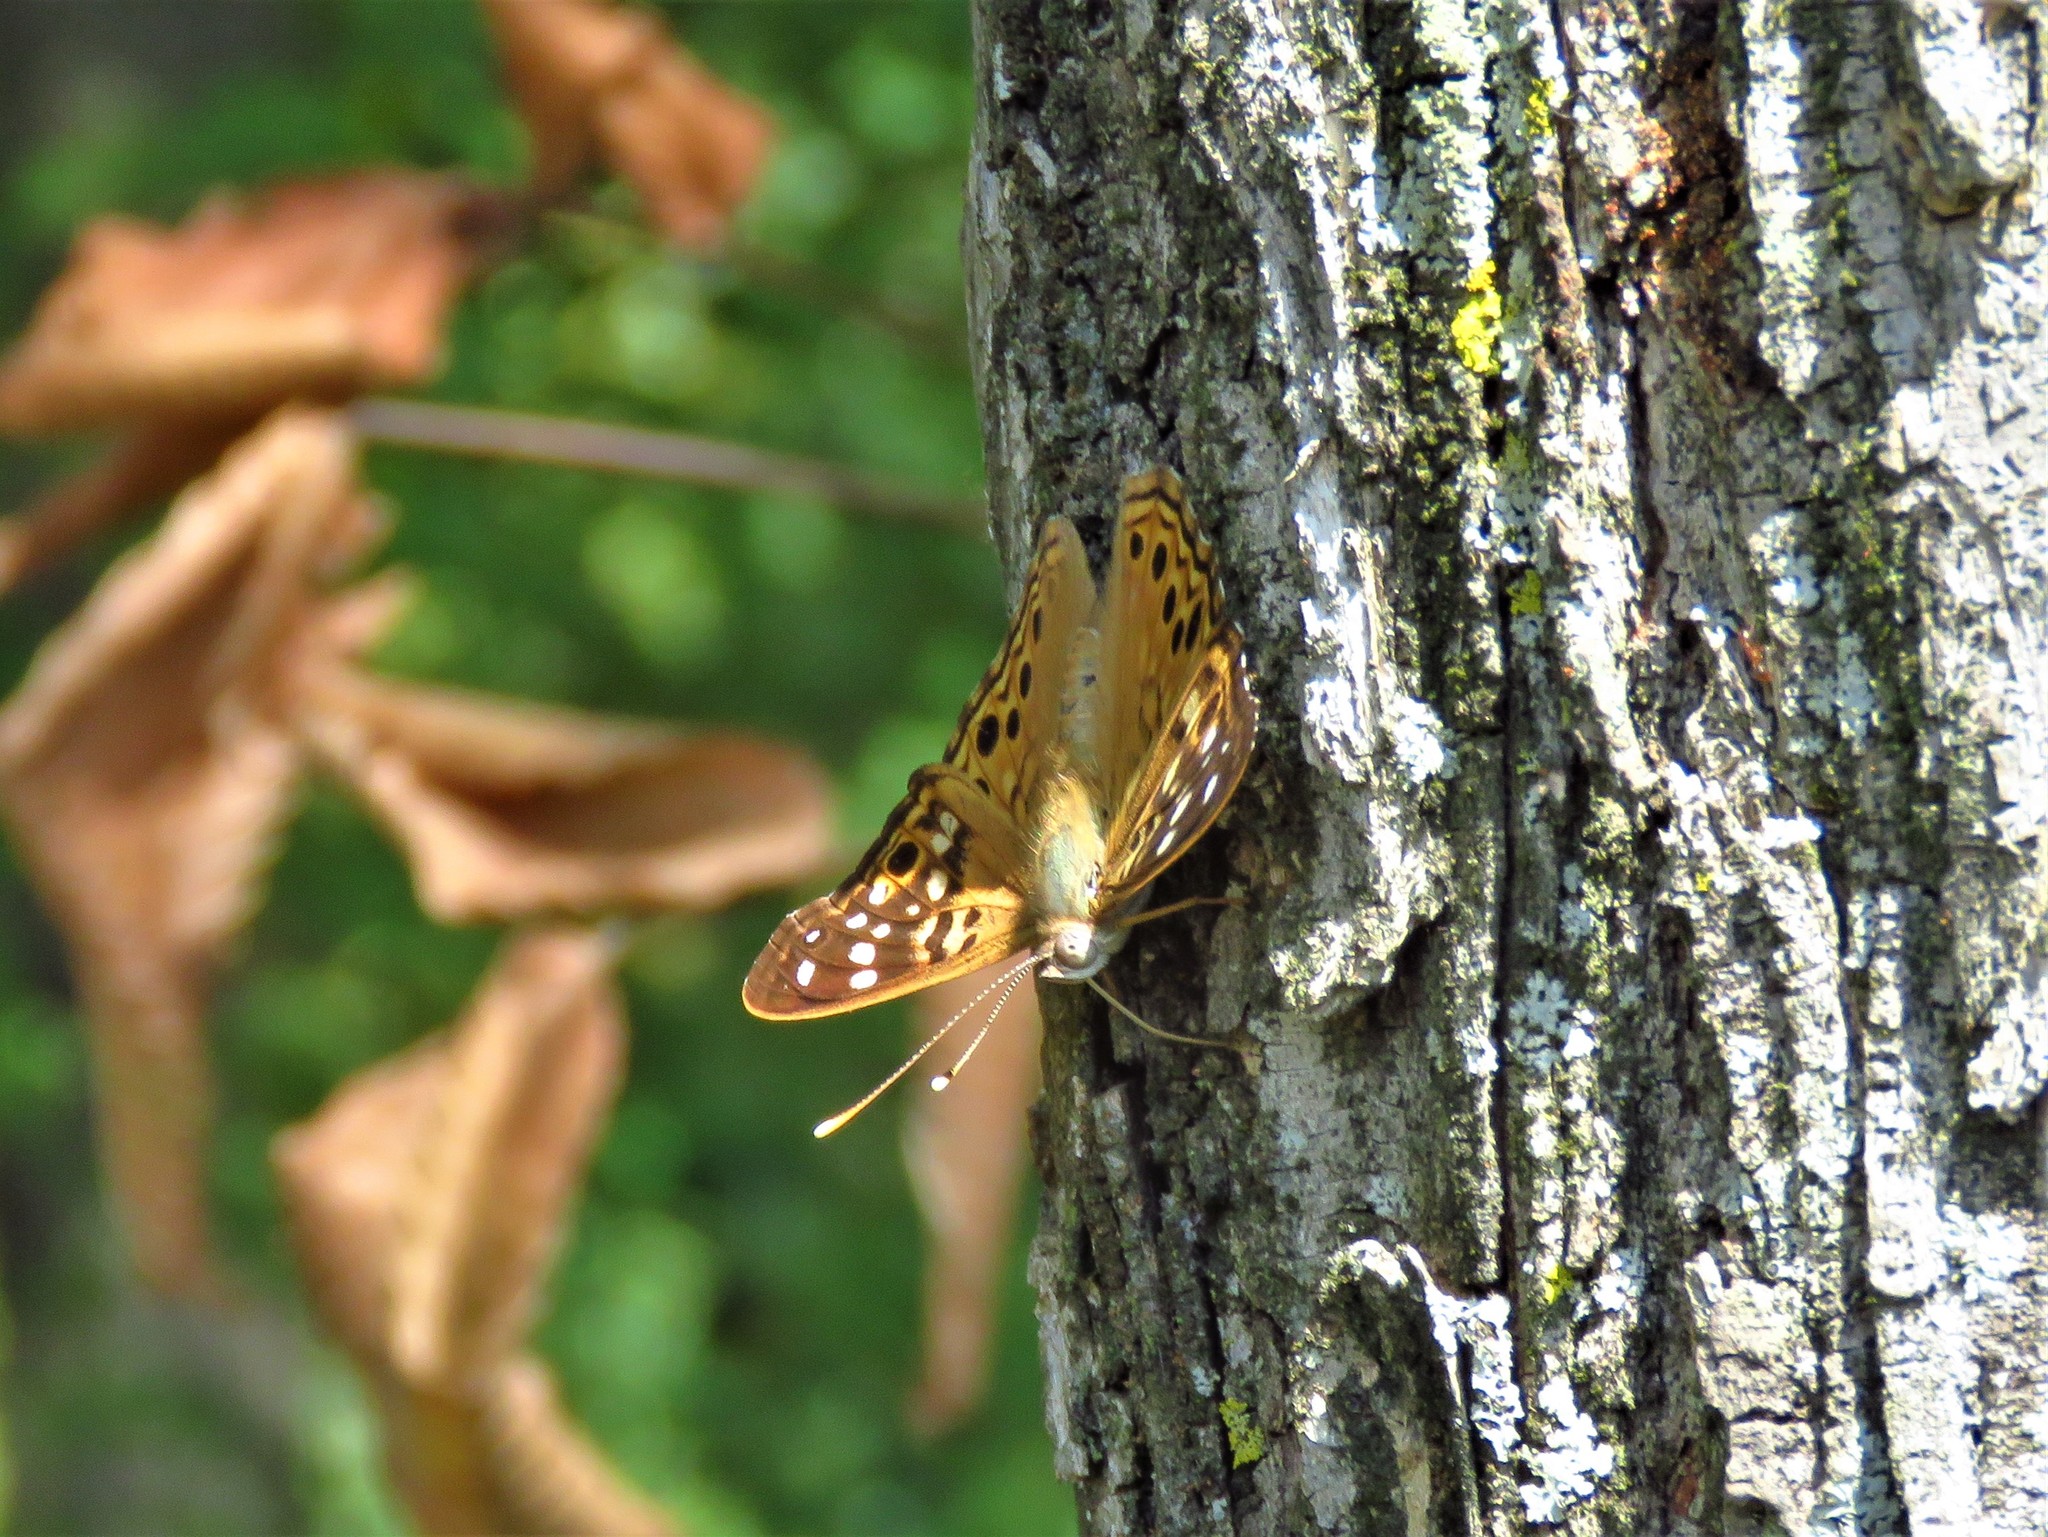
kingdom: Animalia
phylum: Arthropoda
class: Insecta
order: Lepidoptera
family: Nymphalidae
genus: Asterocampa
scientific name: Asterocampa celtis
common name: Hackberry emperor
